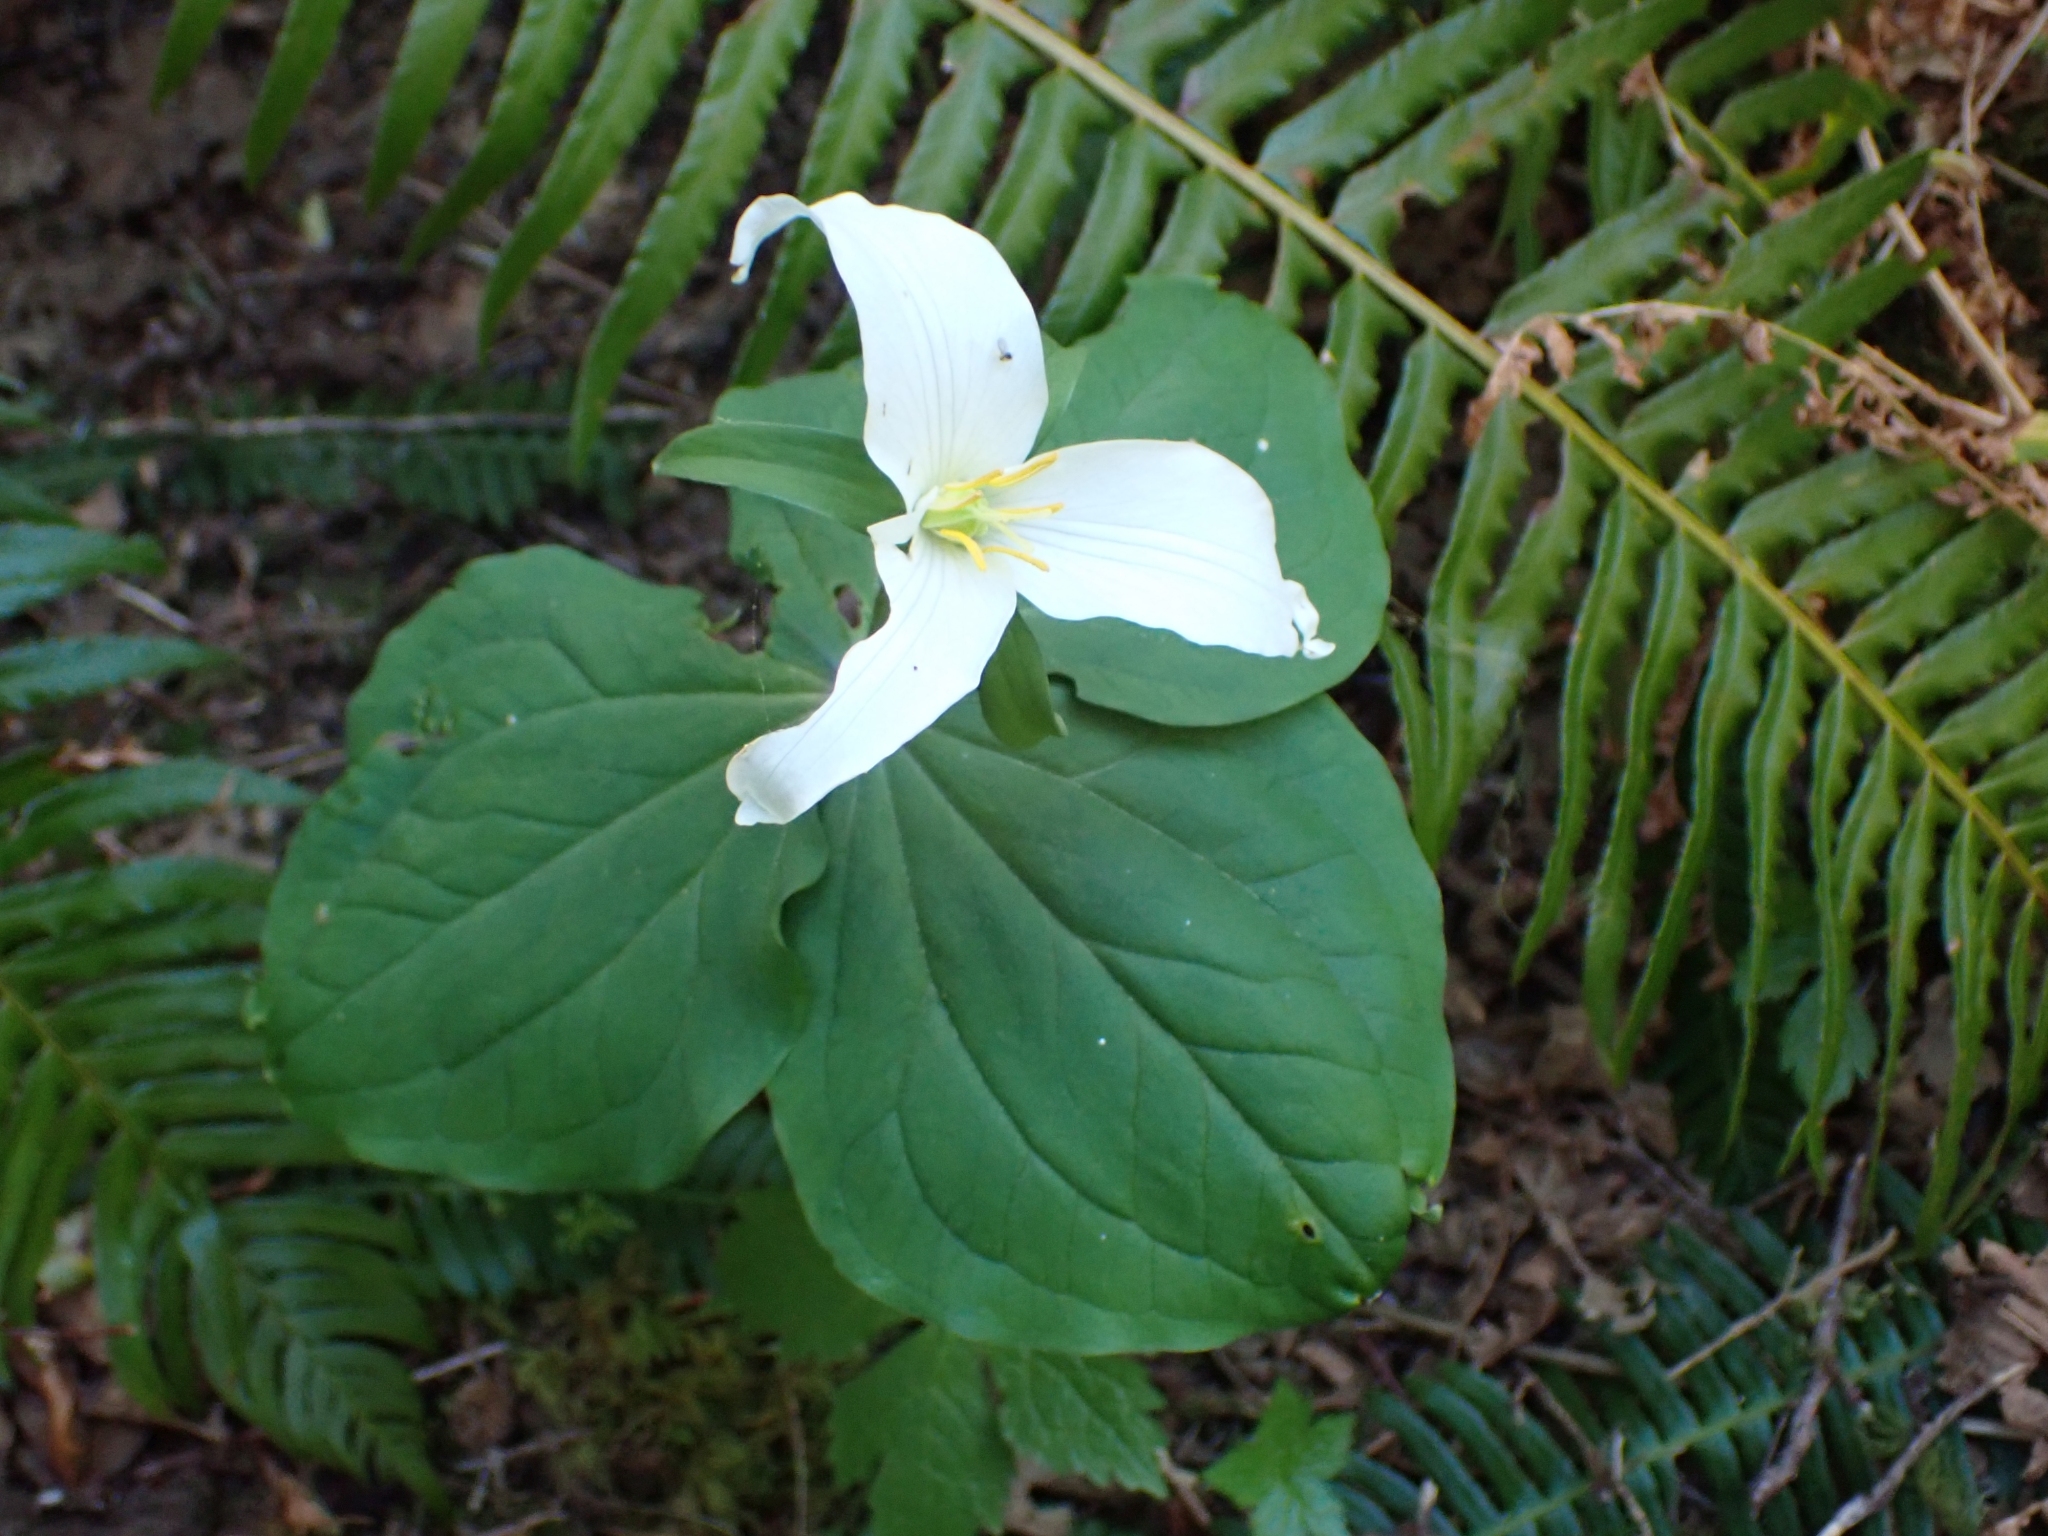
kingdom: Plantae
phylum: Tracheophyta
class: Liliopsida
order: Liliales
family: Melanthiaceae
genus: Trillium
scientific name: Trillium ovatum
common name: Pacific trillium
